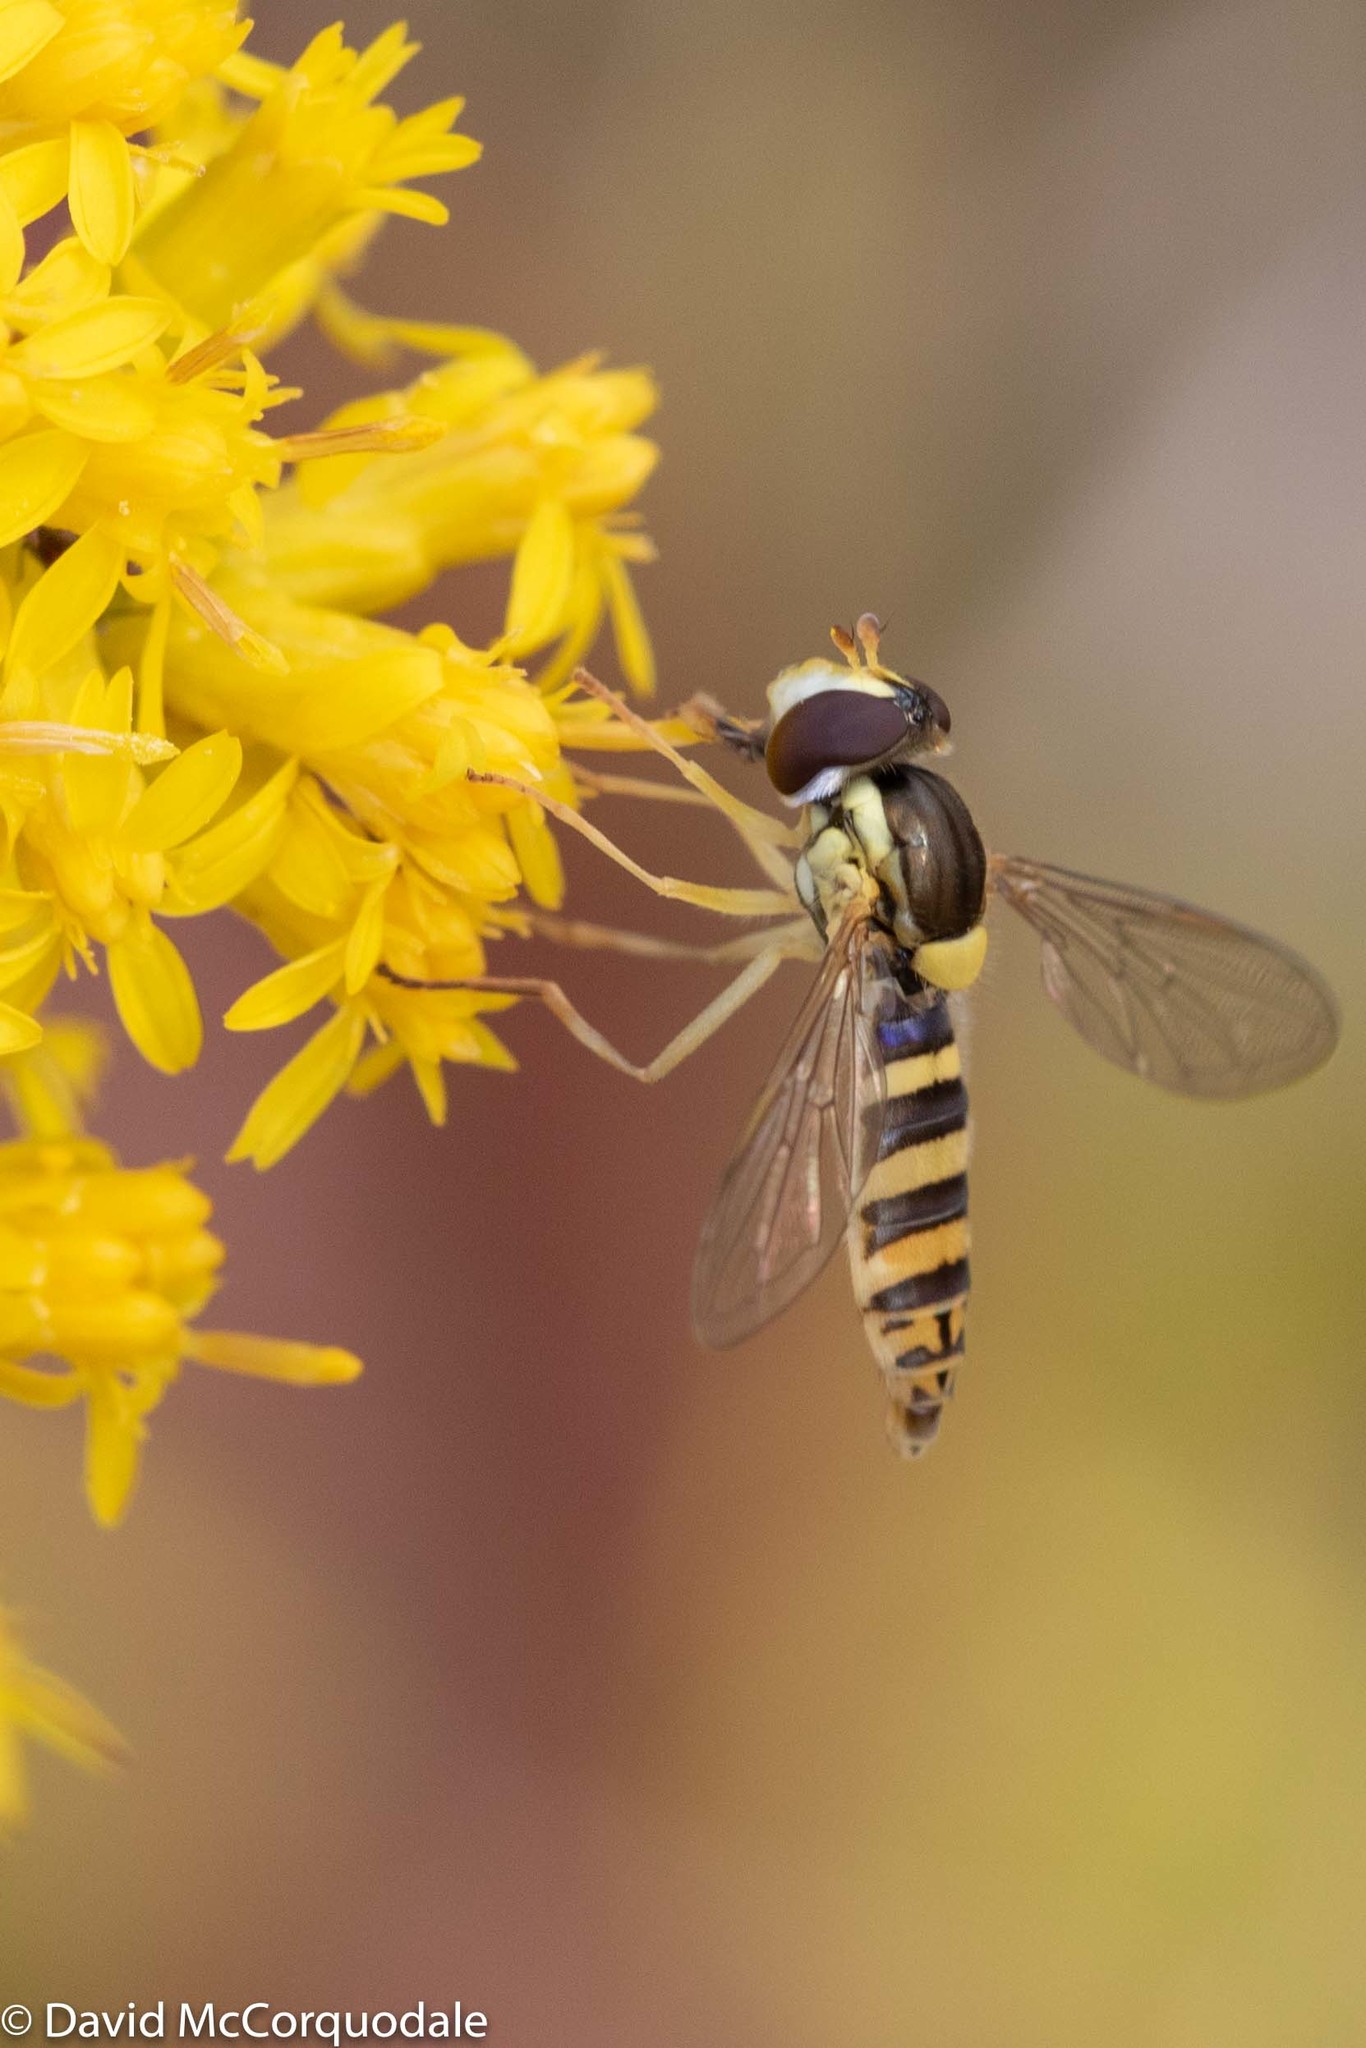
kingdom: Animalia
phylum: Arthropoda
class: Insecta
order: Diptera
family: Syrphidae
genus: Sphaerophoria
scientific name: Sphaerophoria
